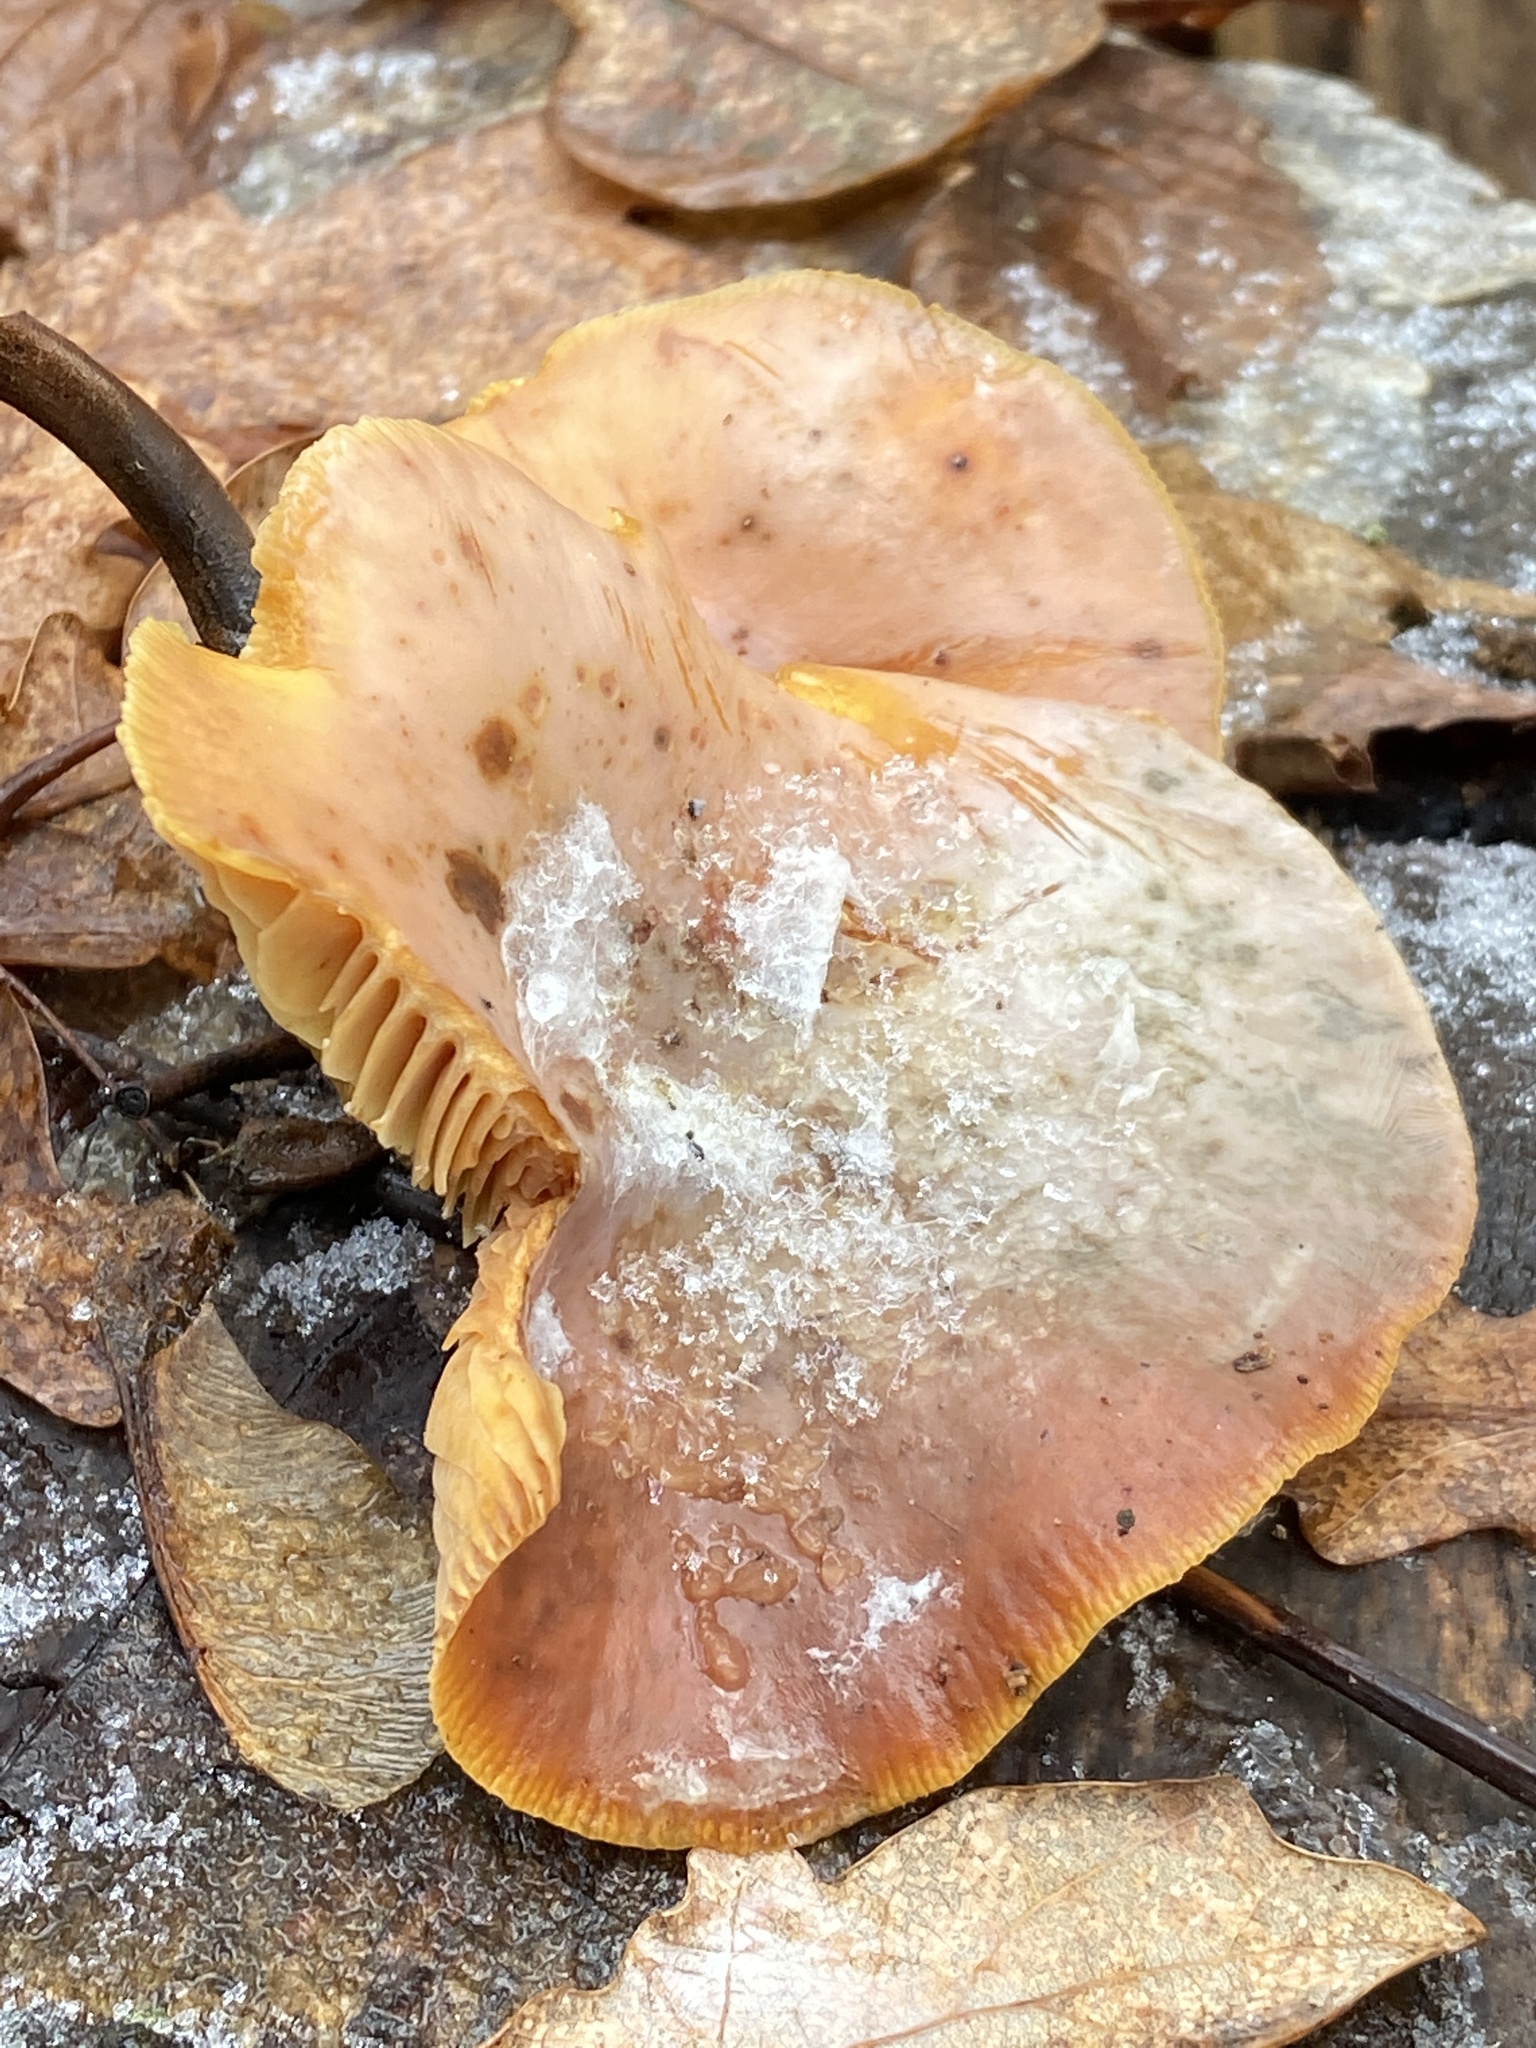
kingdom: Fungi
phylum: Basidiomycota
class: Agaricomycetes
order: Agaricales
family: Physalacriaceae
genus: Flammulina
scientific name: Flammulina
